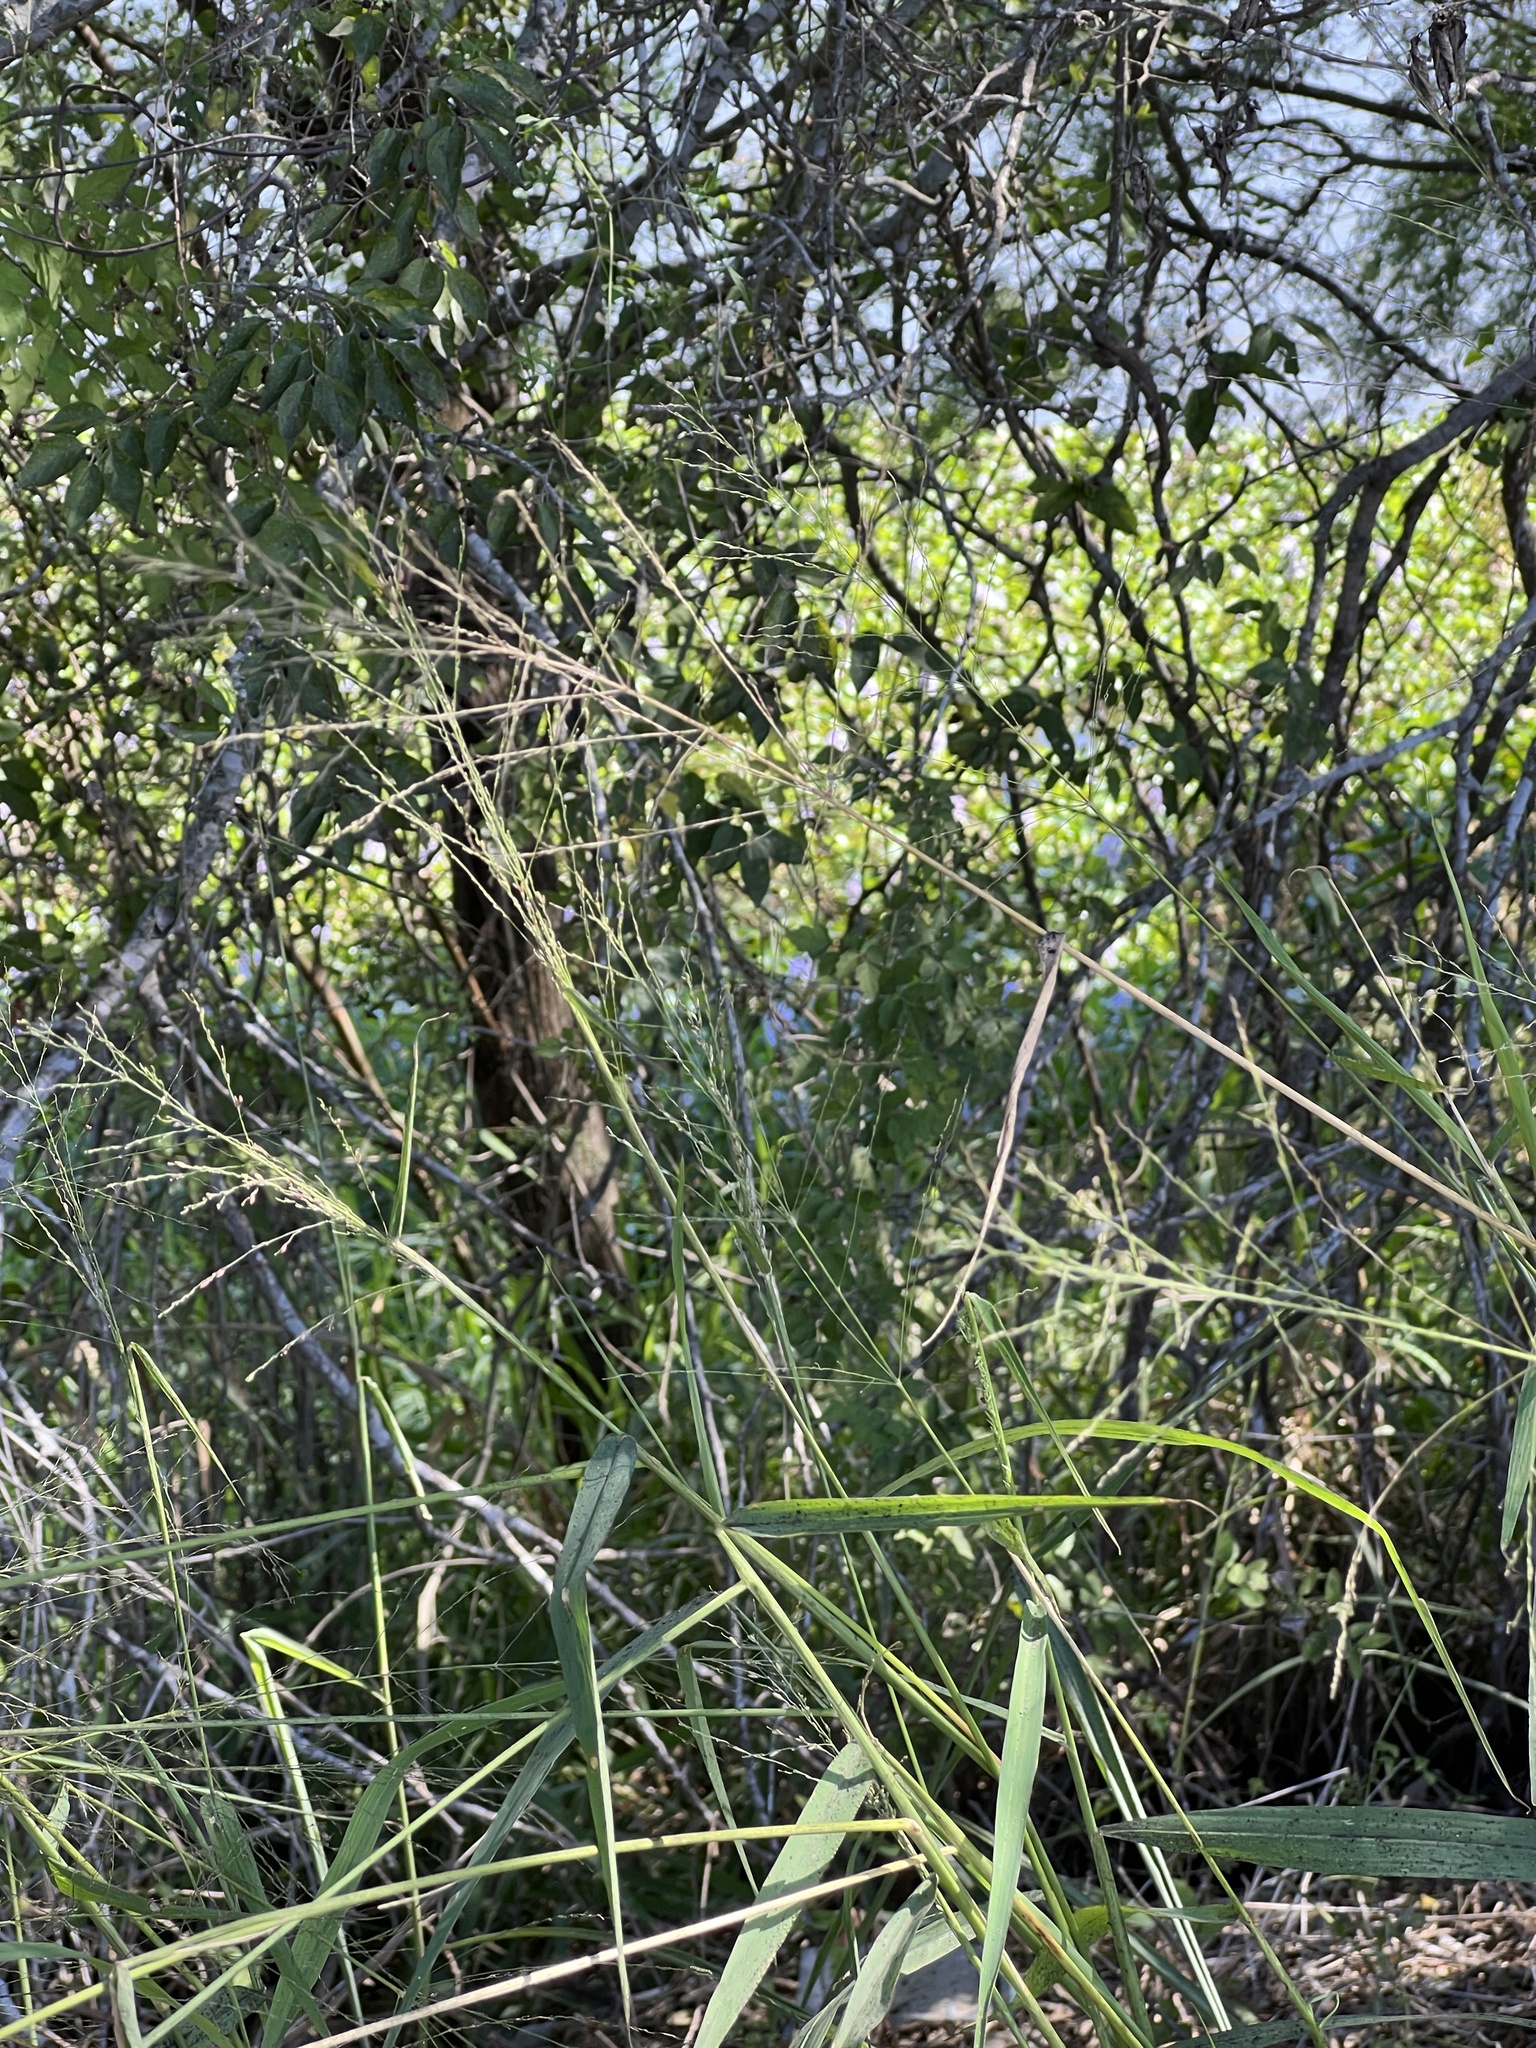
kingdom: Plantae
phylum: Tracheophyta
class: Liliopsida
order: Poales
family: Poaceae
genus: Megathyrsus
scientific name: Megathyrsus maximus
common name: Guineagrass
